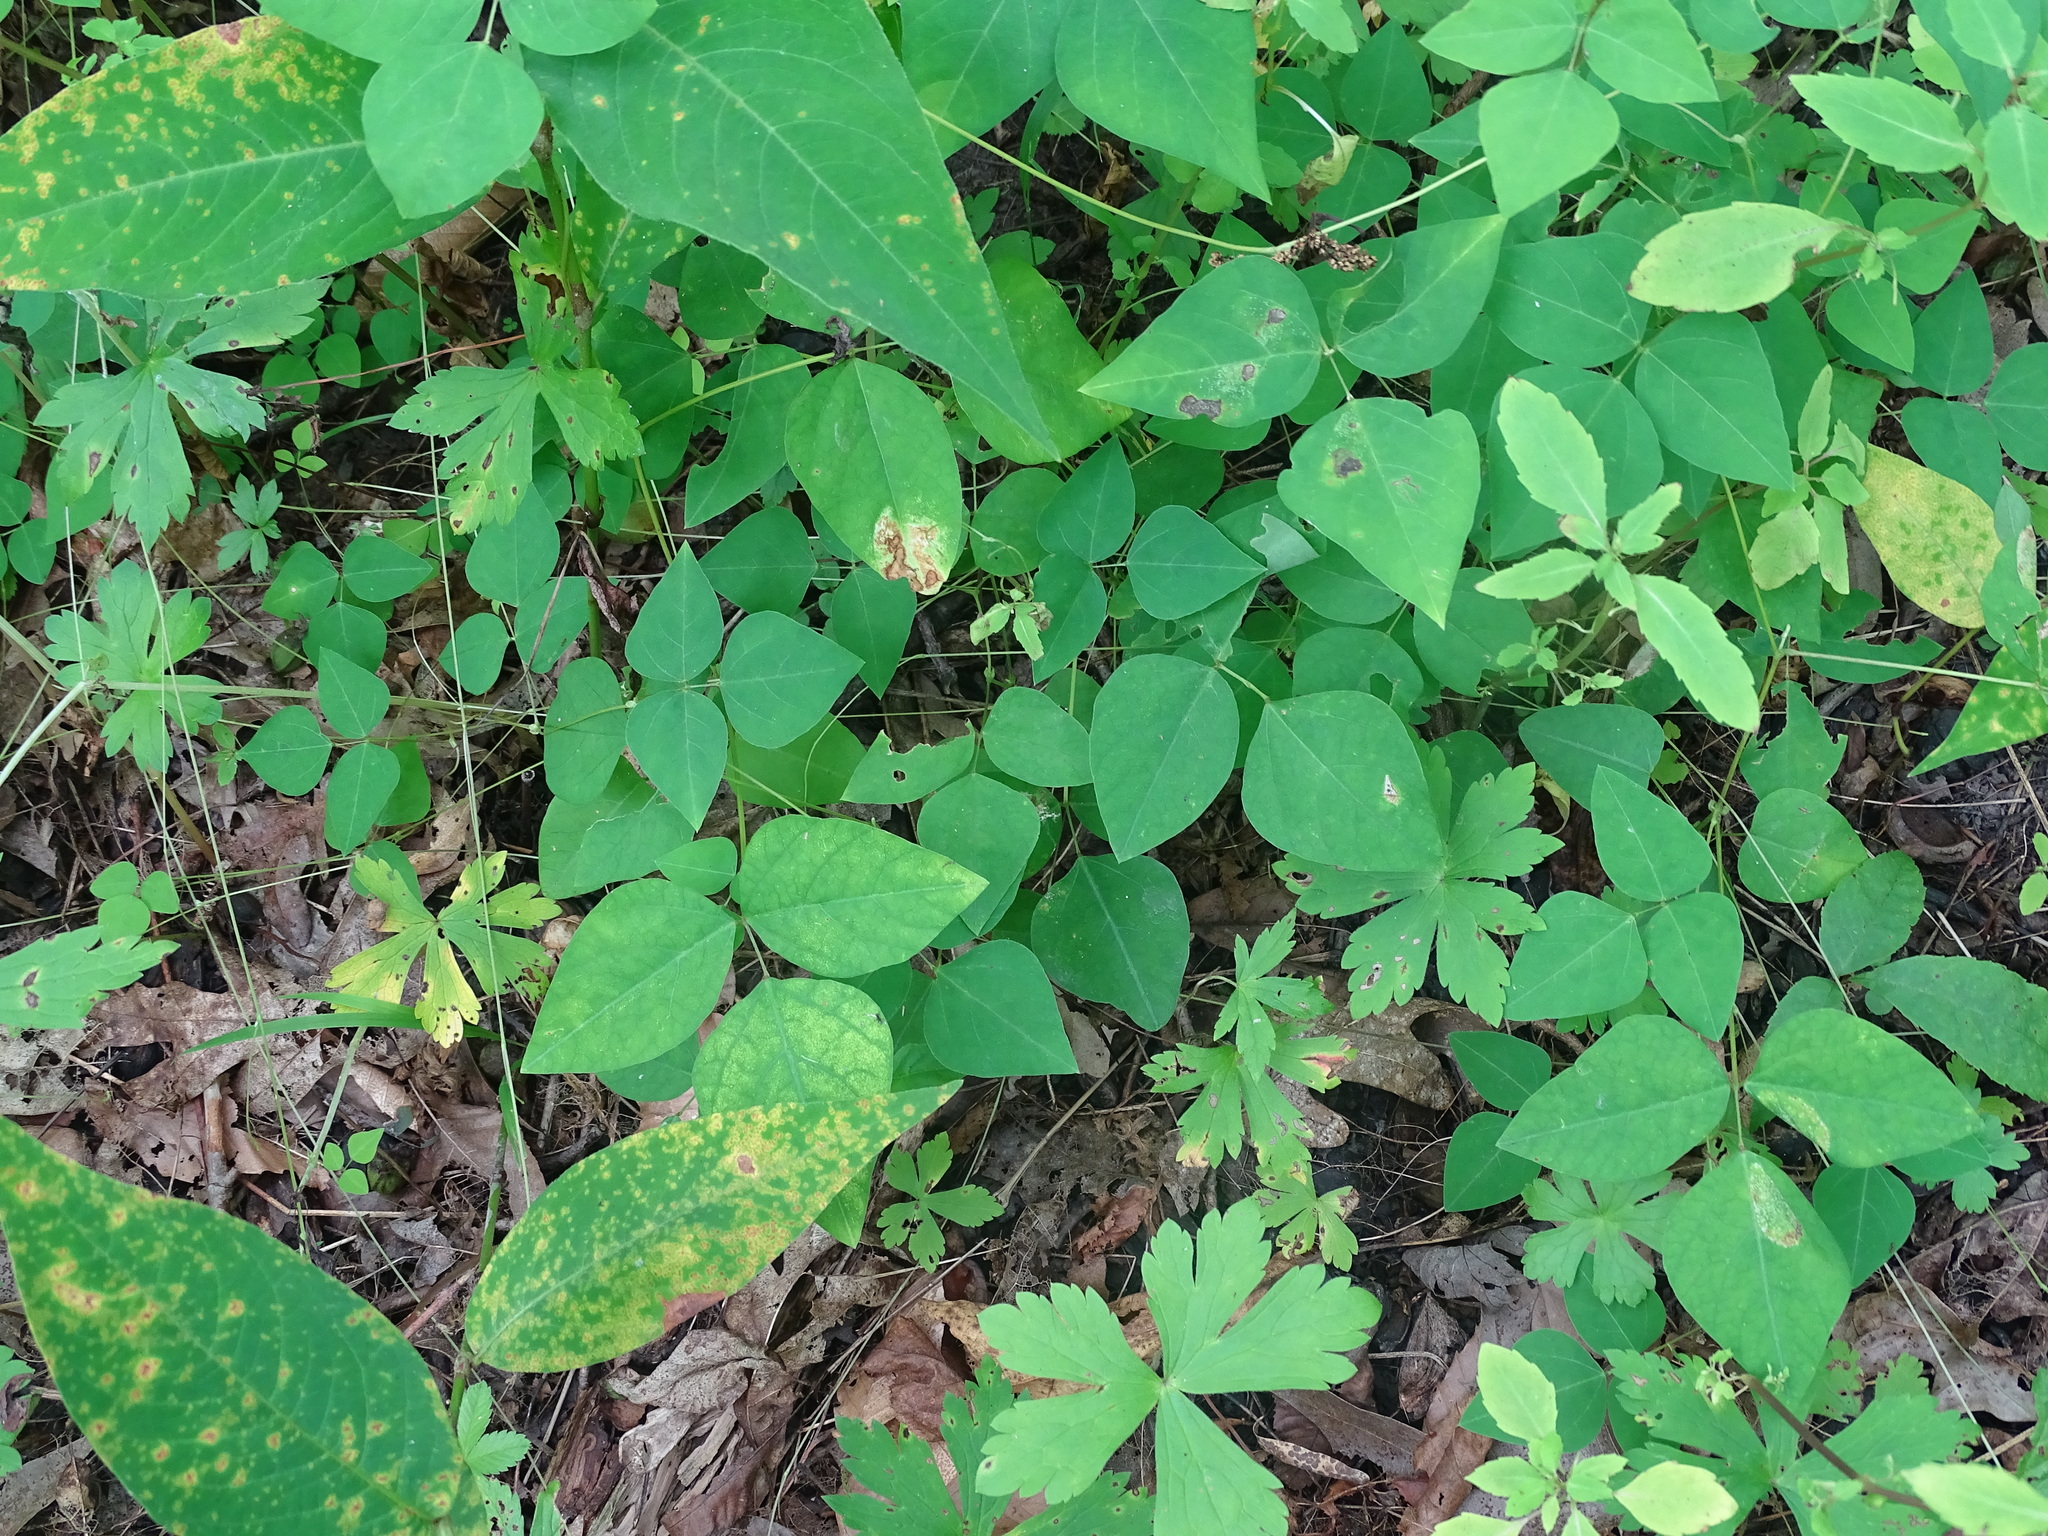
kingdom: Plantae
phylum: Tracheophyta
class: Magnoliopsida
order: Fabales
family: Fabaceae
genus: Amphicarpaea
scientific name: Amphicarpaea bracteata
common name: American hog peanut
